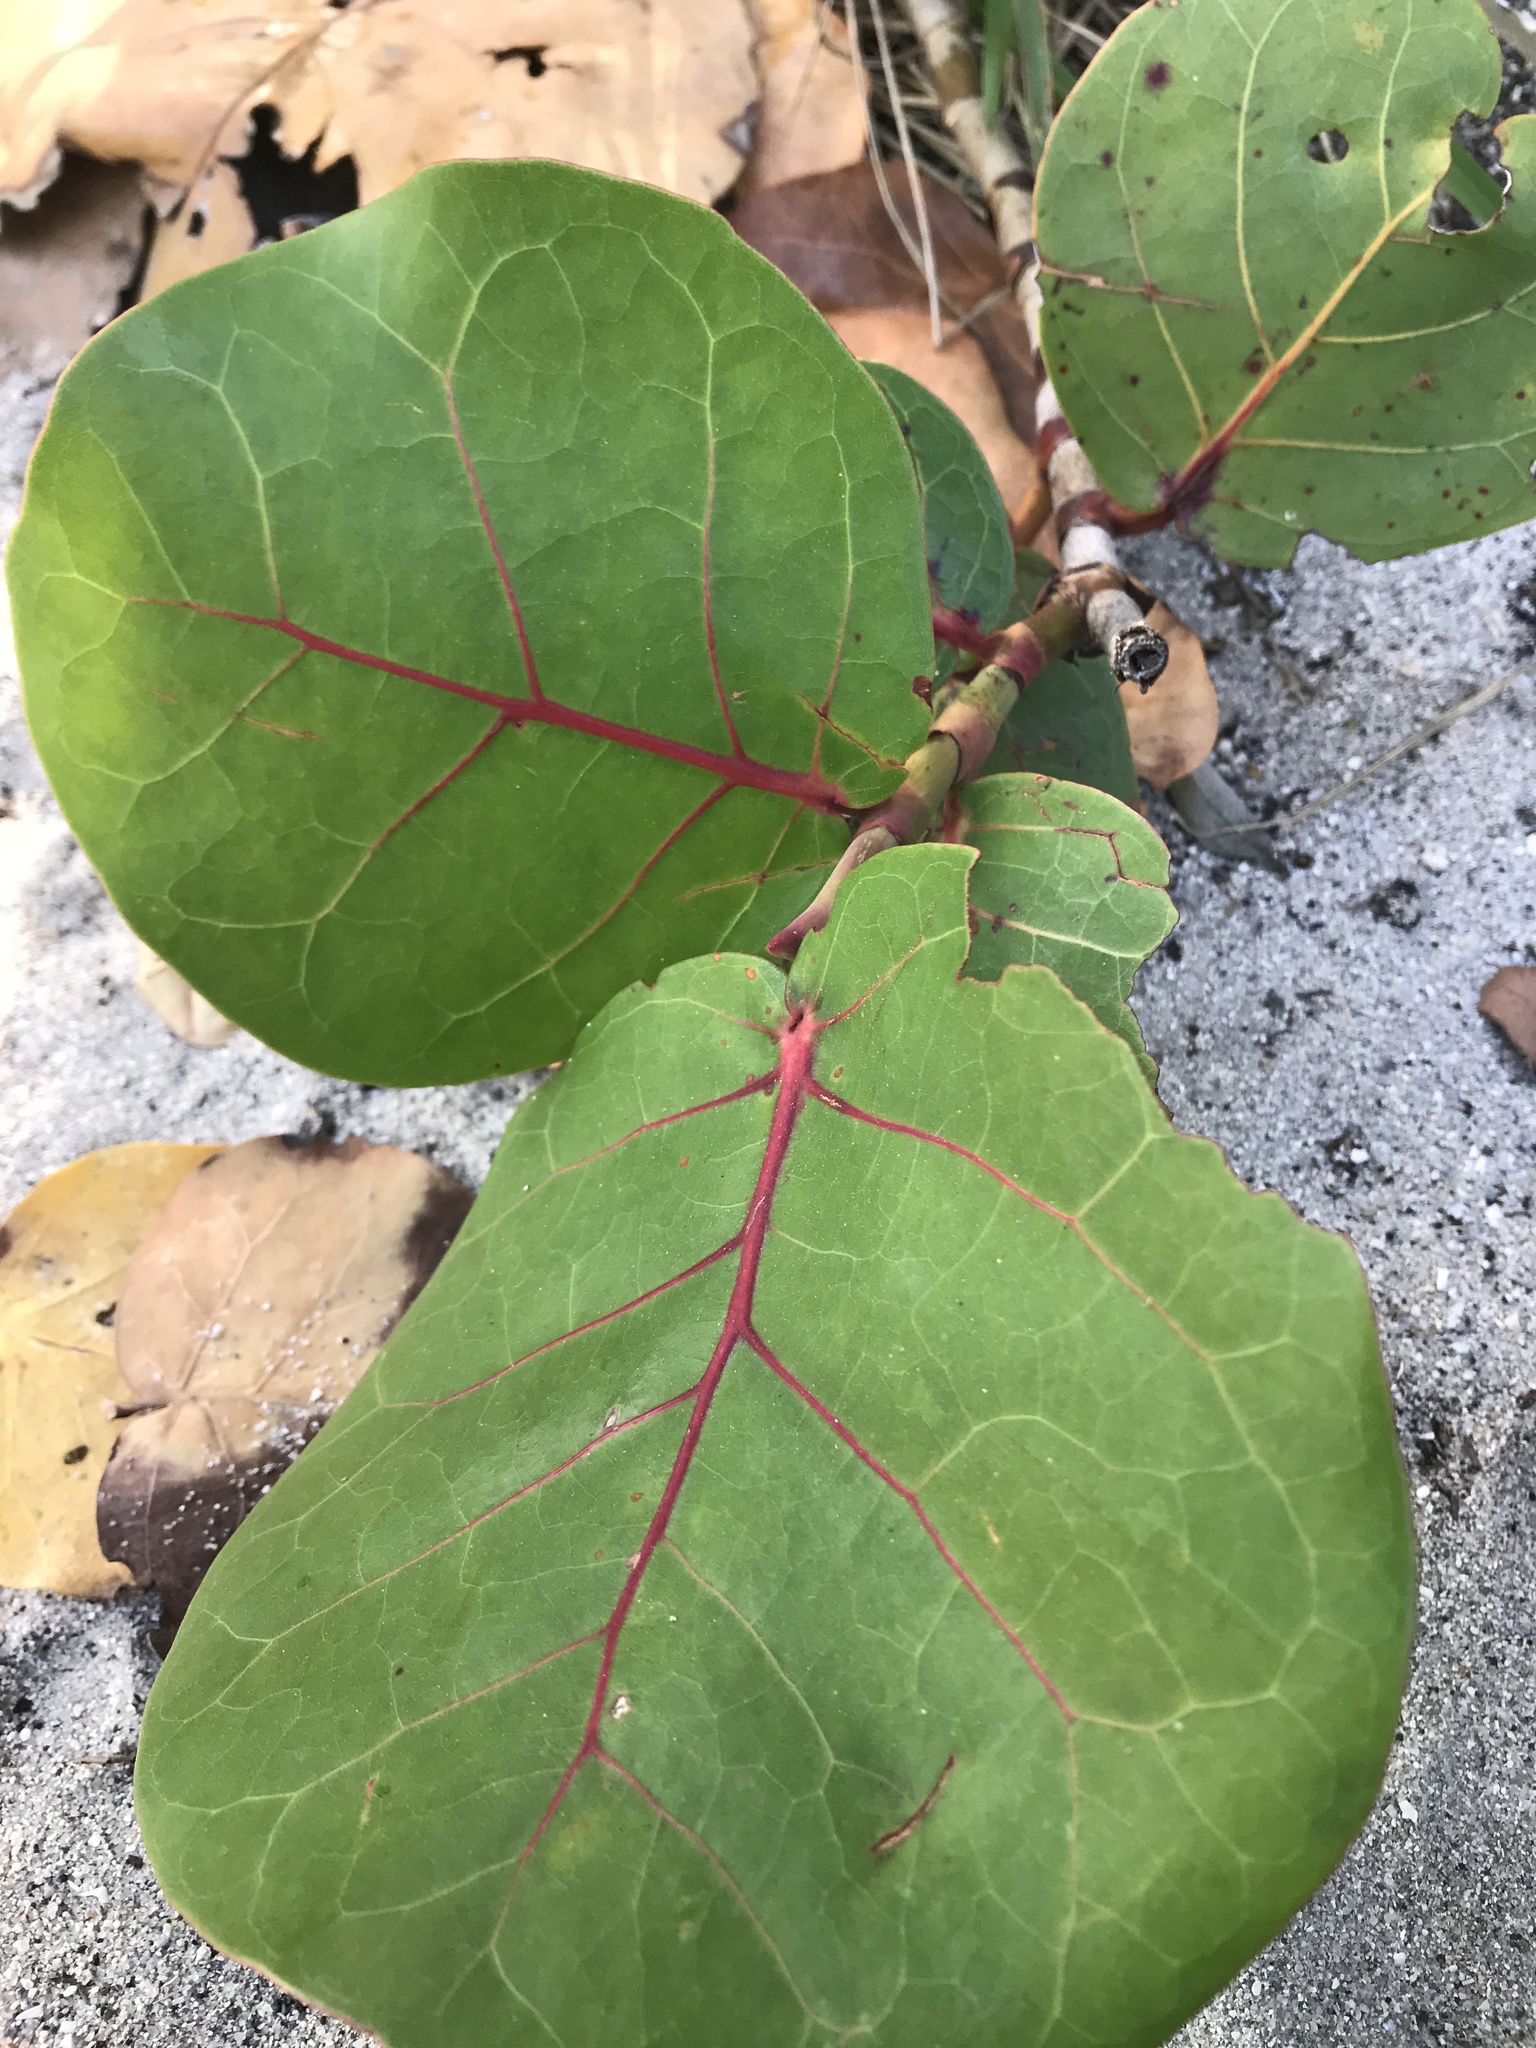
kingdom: Plantae
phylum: Tracheophyta
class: Magnoliopsida
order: Caryophyllales
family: Polygonaceae
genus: Coccoloba
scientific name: Coccoloba uvifera
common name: Seagrape
